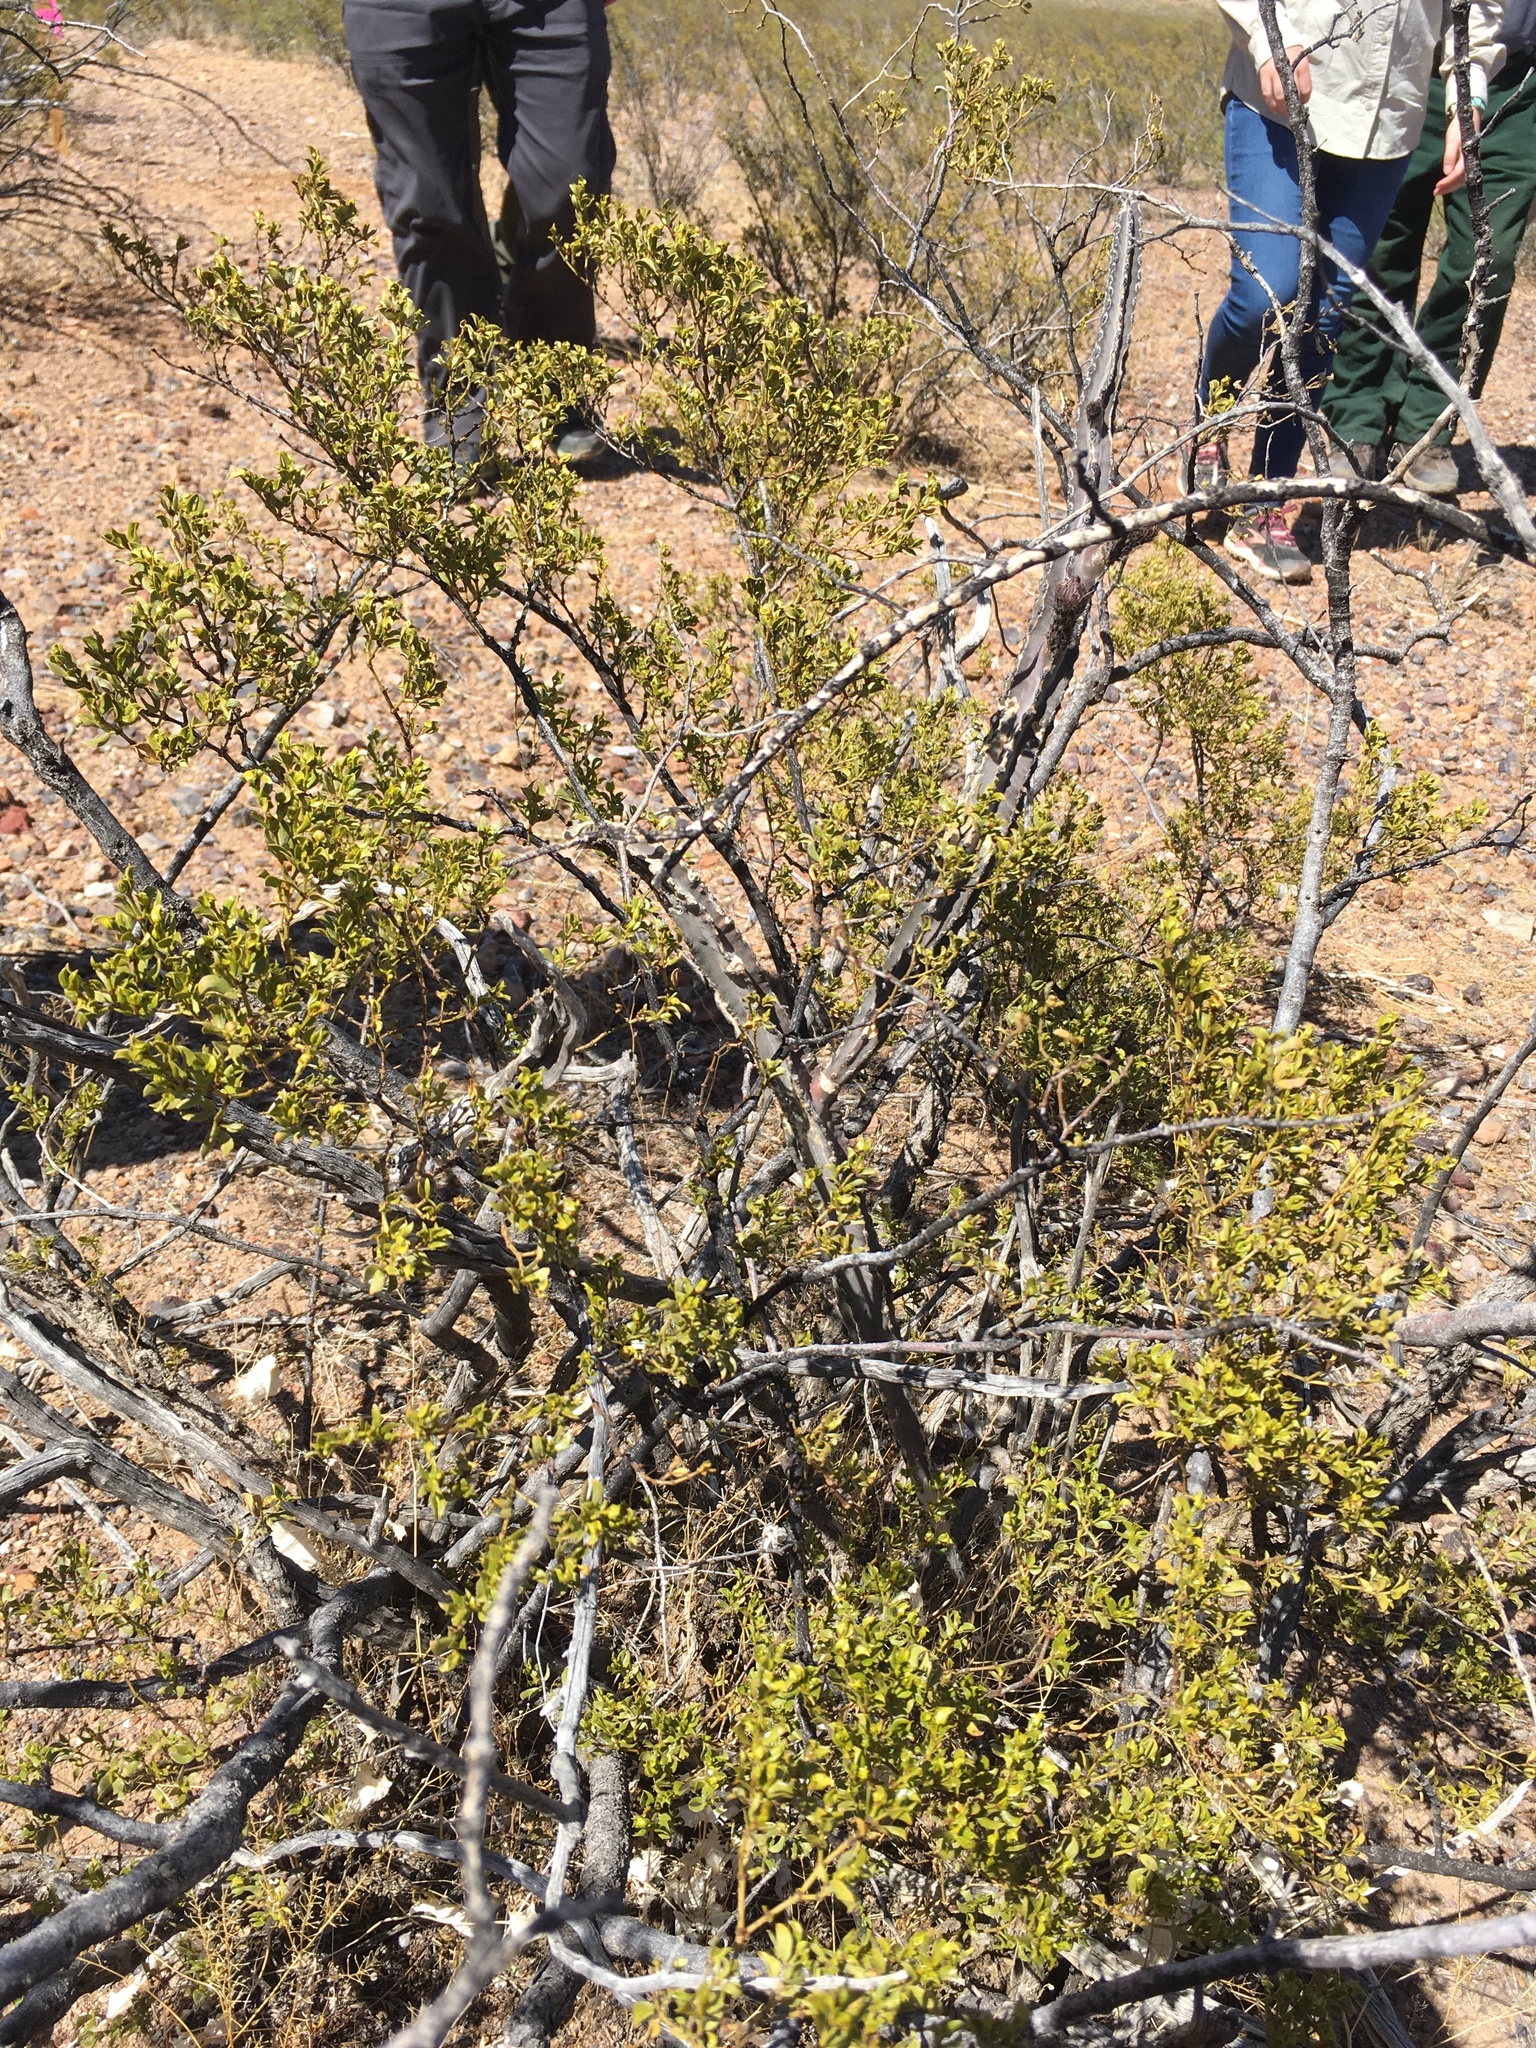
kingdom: Plantae
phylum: Tracheophyta
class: Magnoliopsida
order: Caryophyllales
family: Cactaceae
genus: Peniocereus
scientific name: Peniocereus greggii
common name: Desert night-blooming cereus
